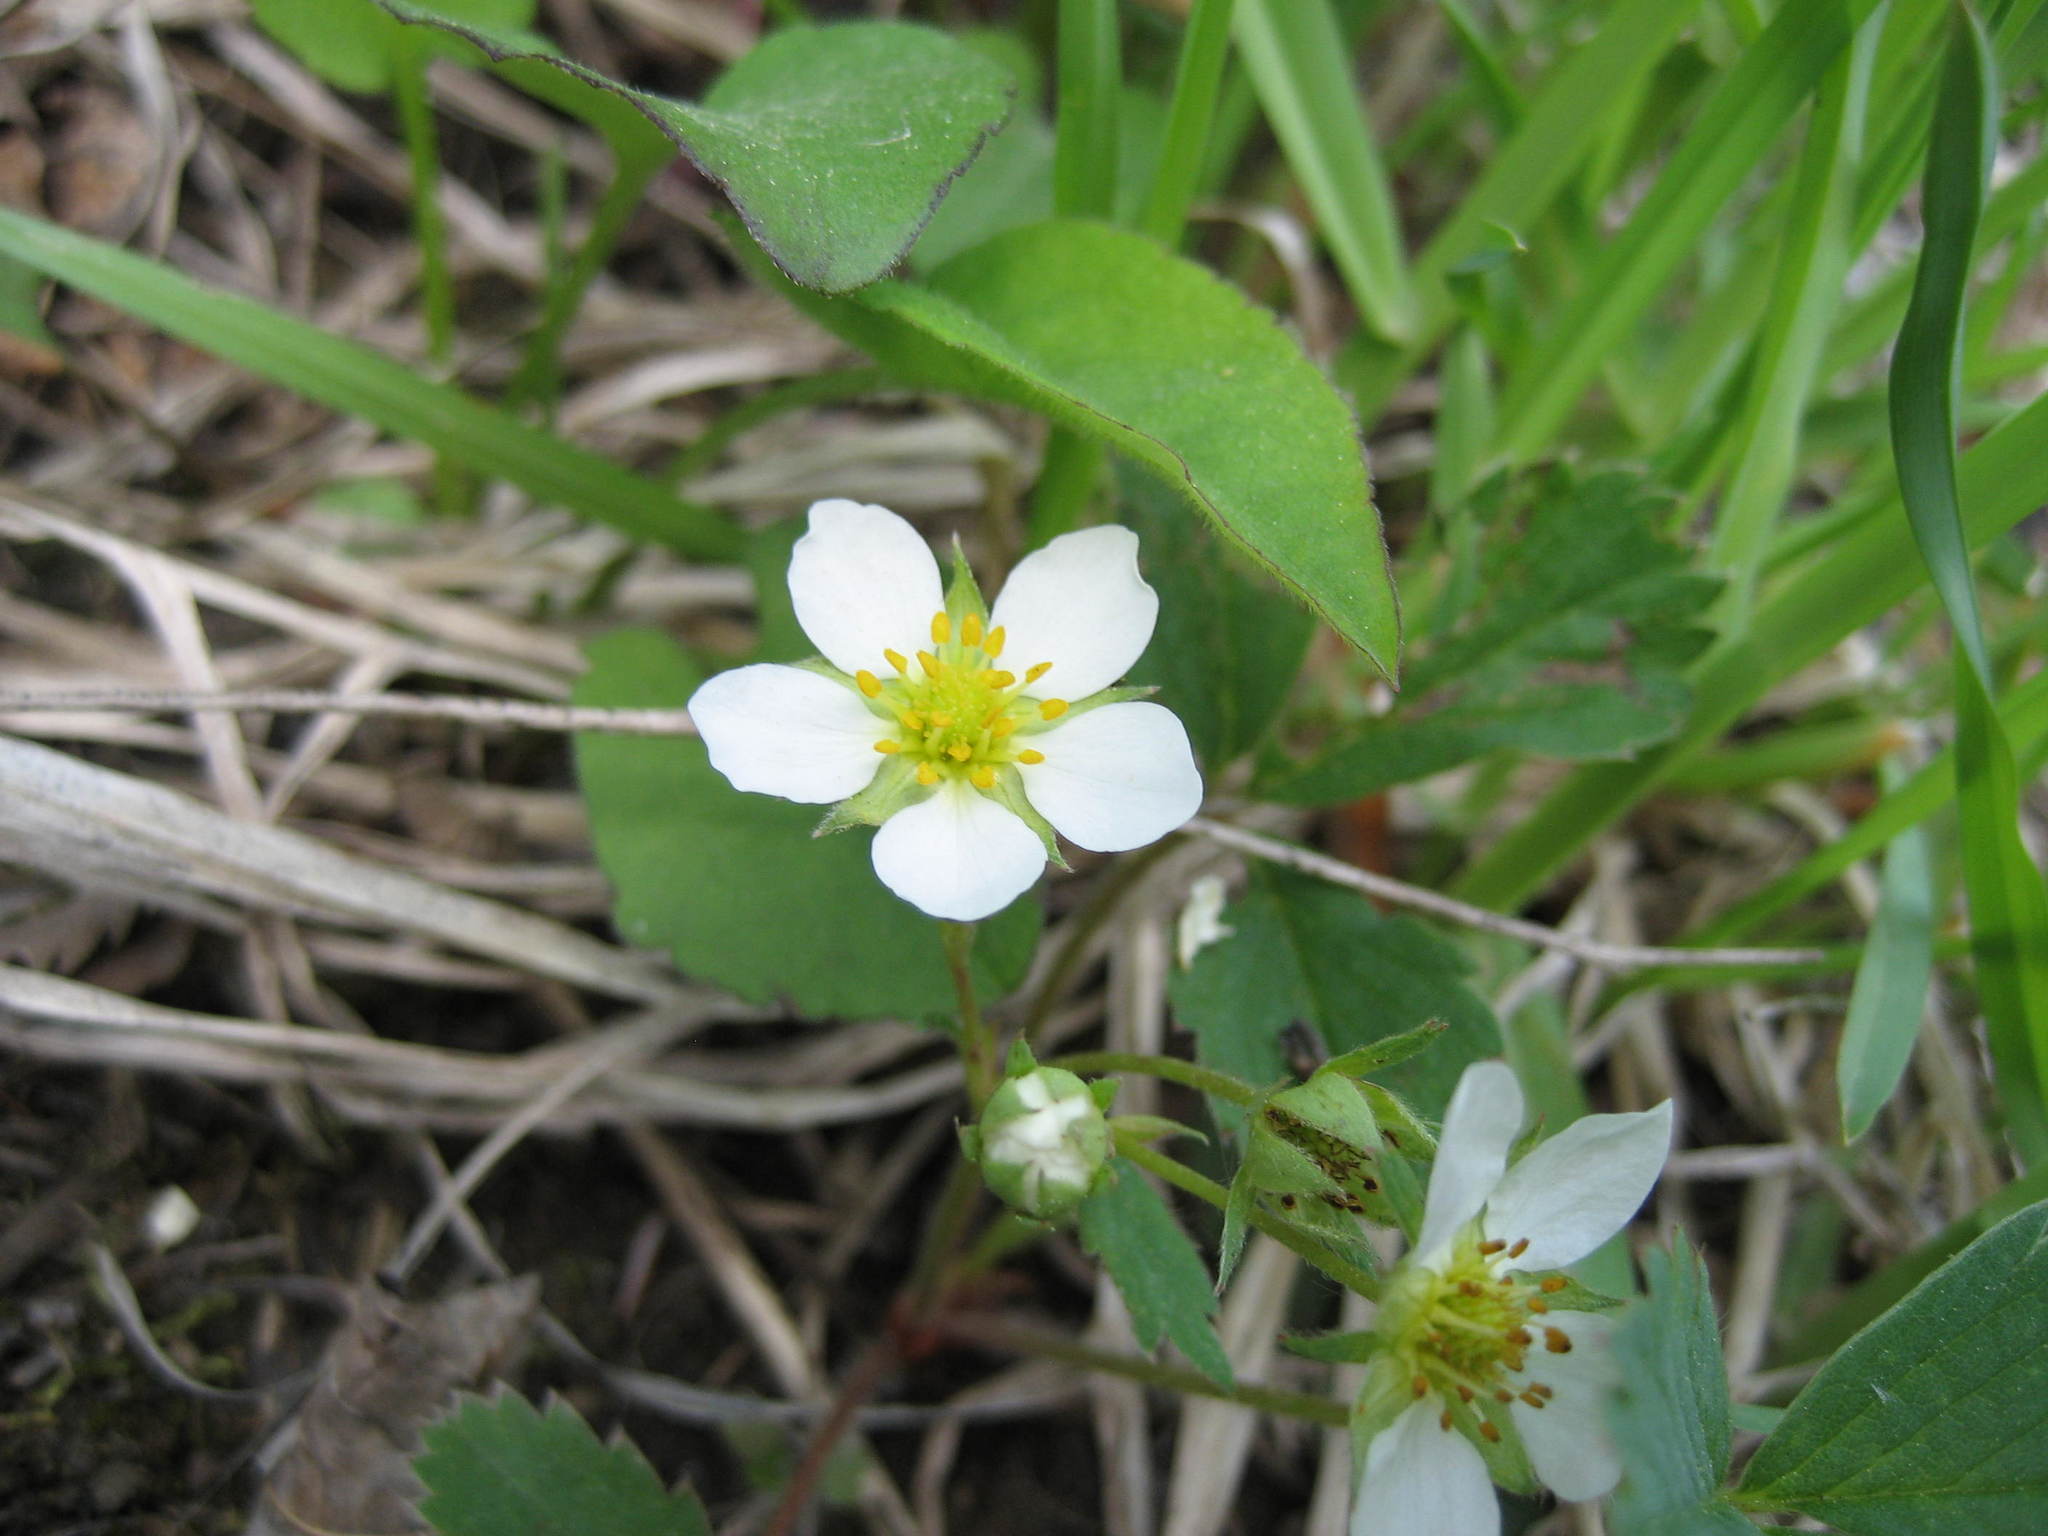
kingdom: Plantae
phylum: Tracheophyta
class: Magnoliopsida
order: Rosales
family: Rosaceae
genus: Fragaria
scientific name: Fragaria virginiana
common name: Thickleaved wild strawberry
